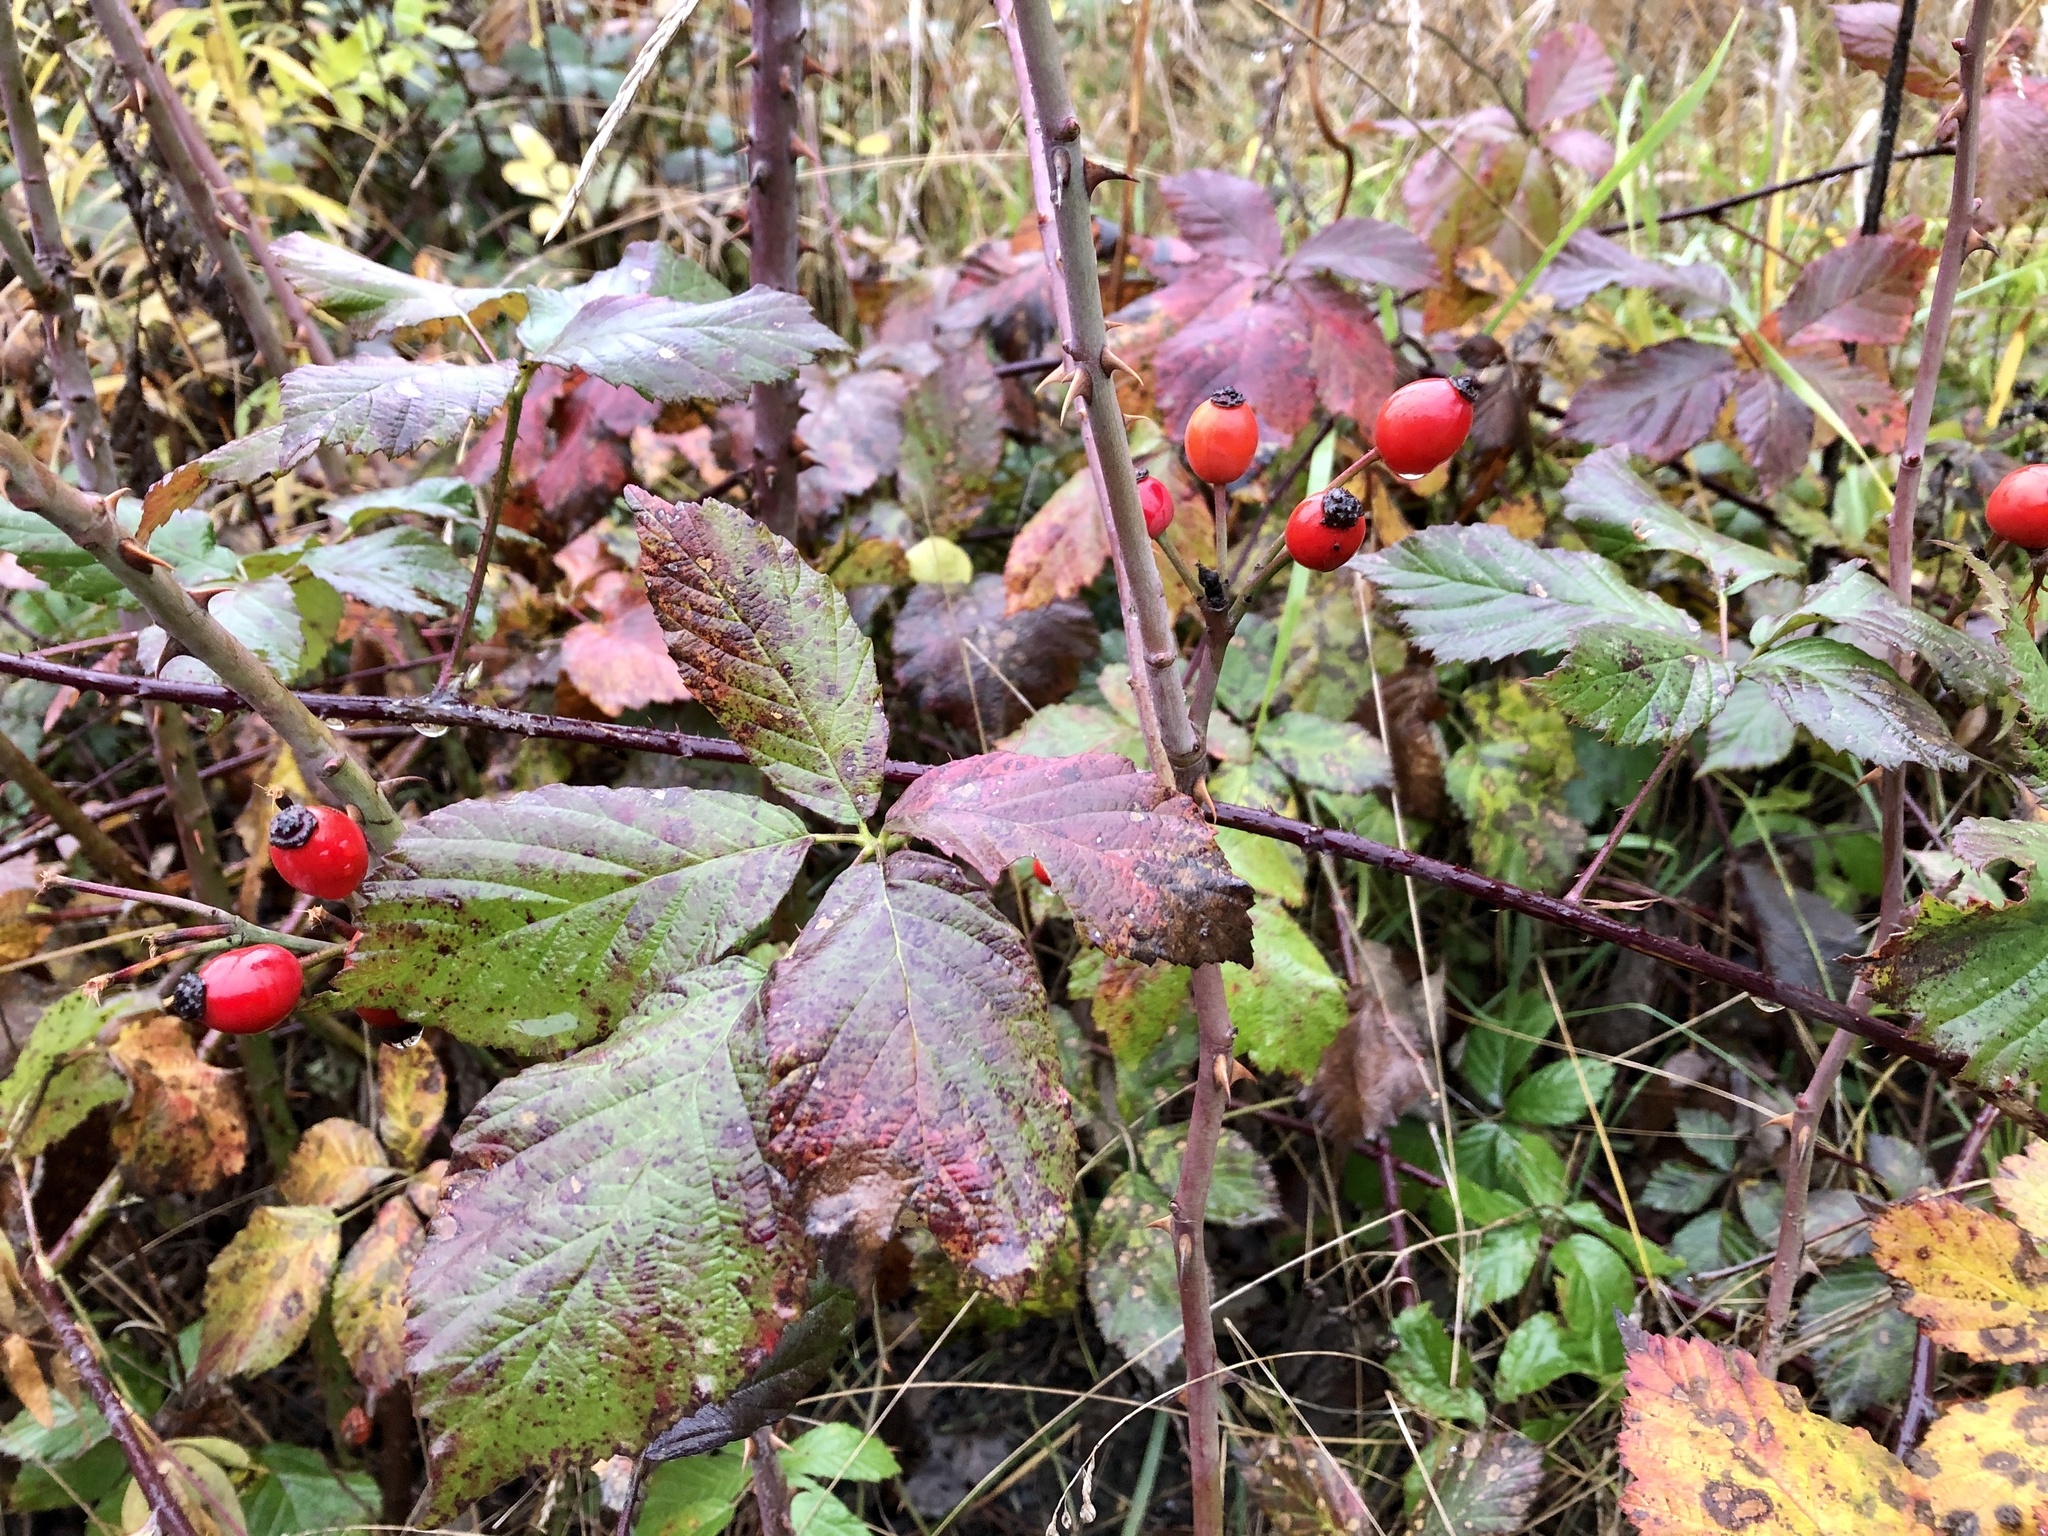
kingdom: Plantae
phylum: Tracheophyta
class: Magnoliopsida
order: Rosales
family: Rosaceae
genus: Rosa
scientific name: Rosa canina
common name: Dog rose
